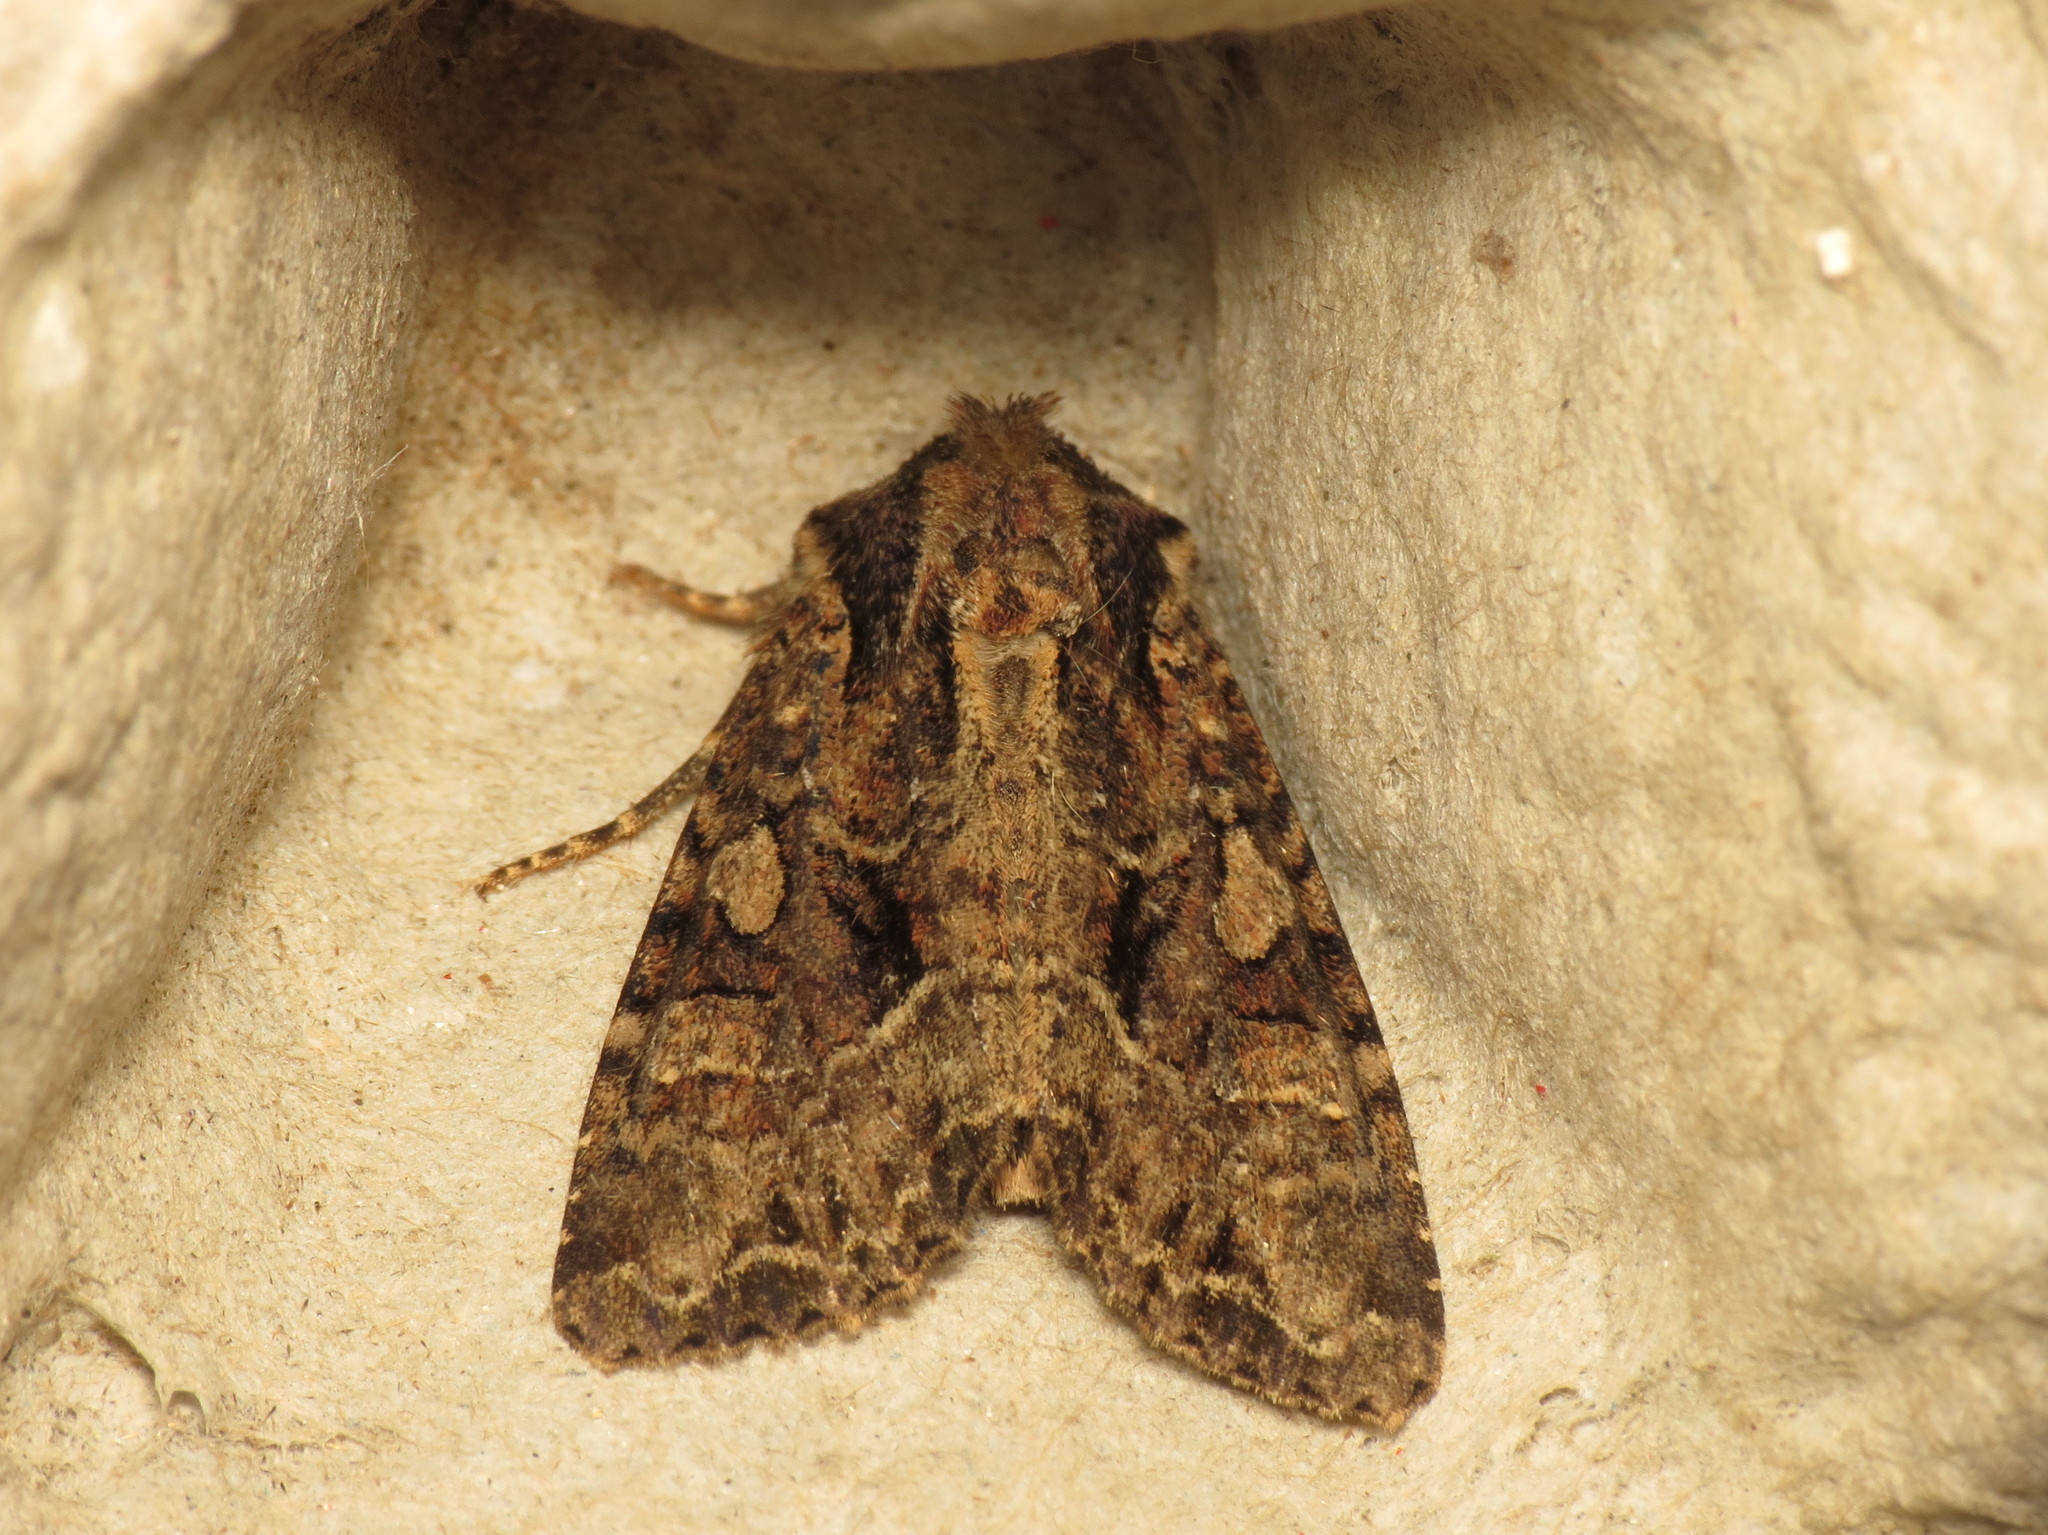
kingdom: Animalia
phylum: Arthropoda
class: Insecta
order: Lepidoptera
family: Noctuidae
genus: Apamea
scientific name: Apamea remissa
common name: Dusky brocade
